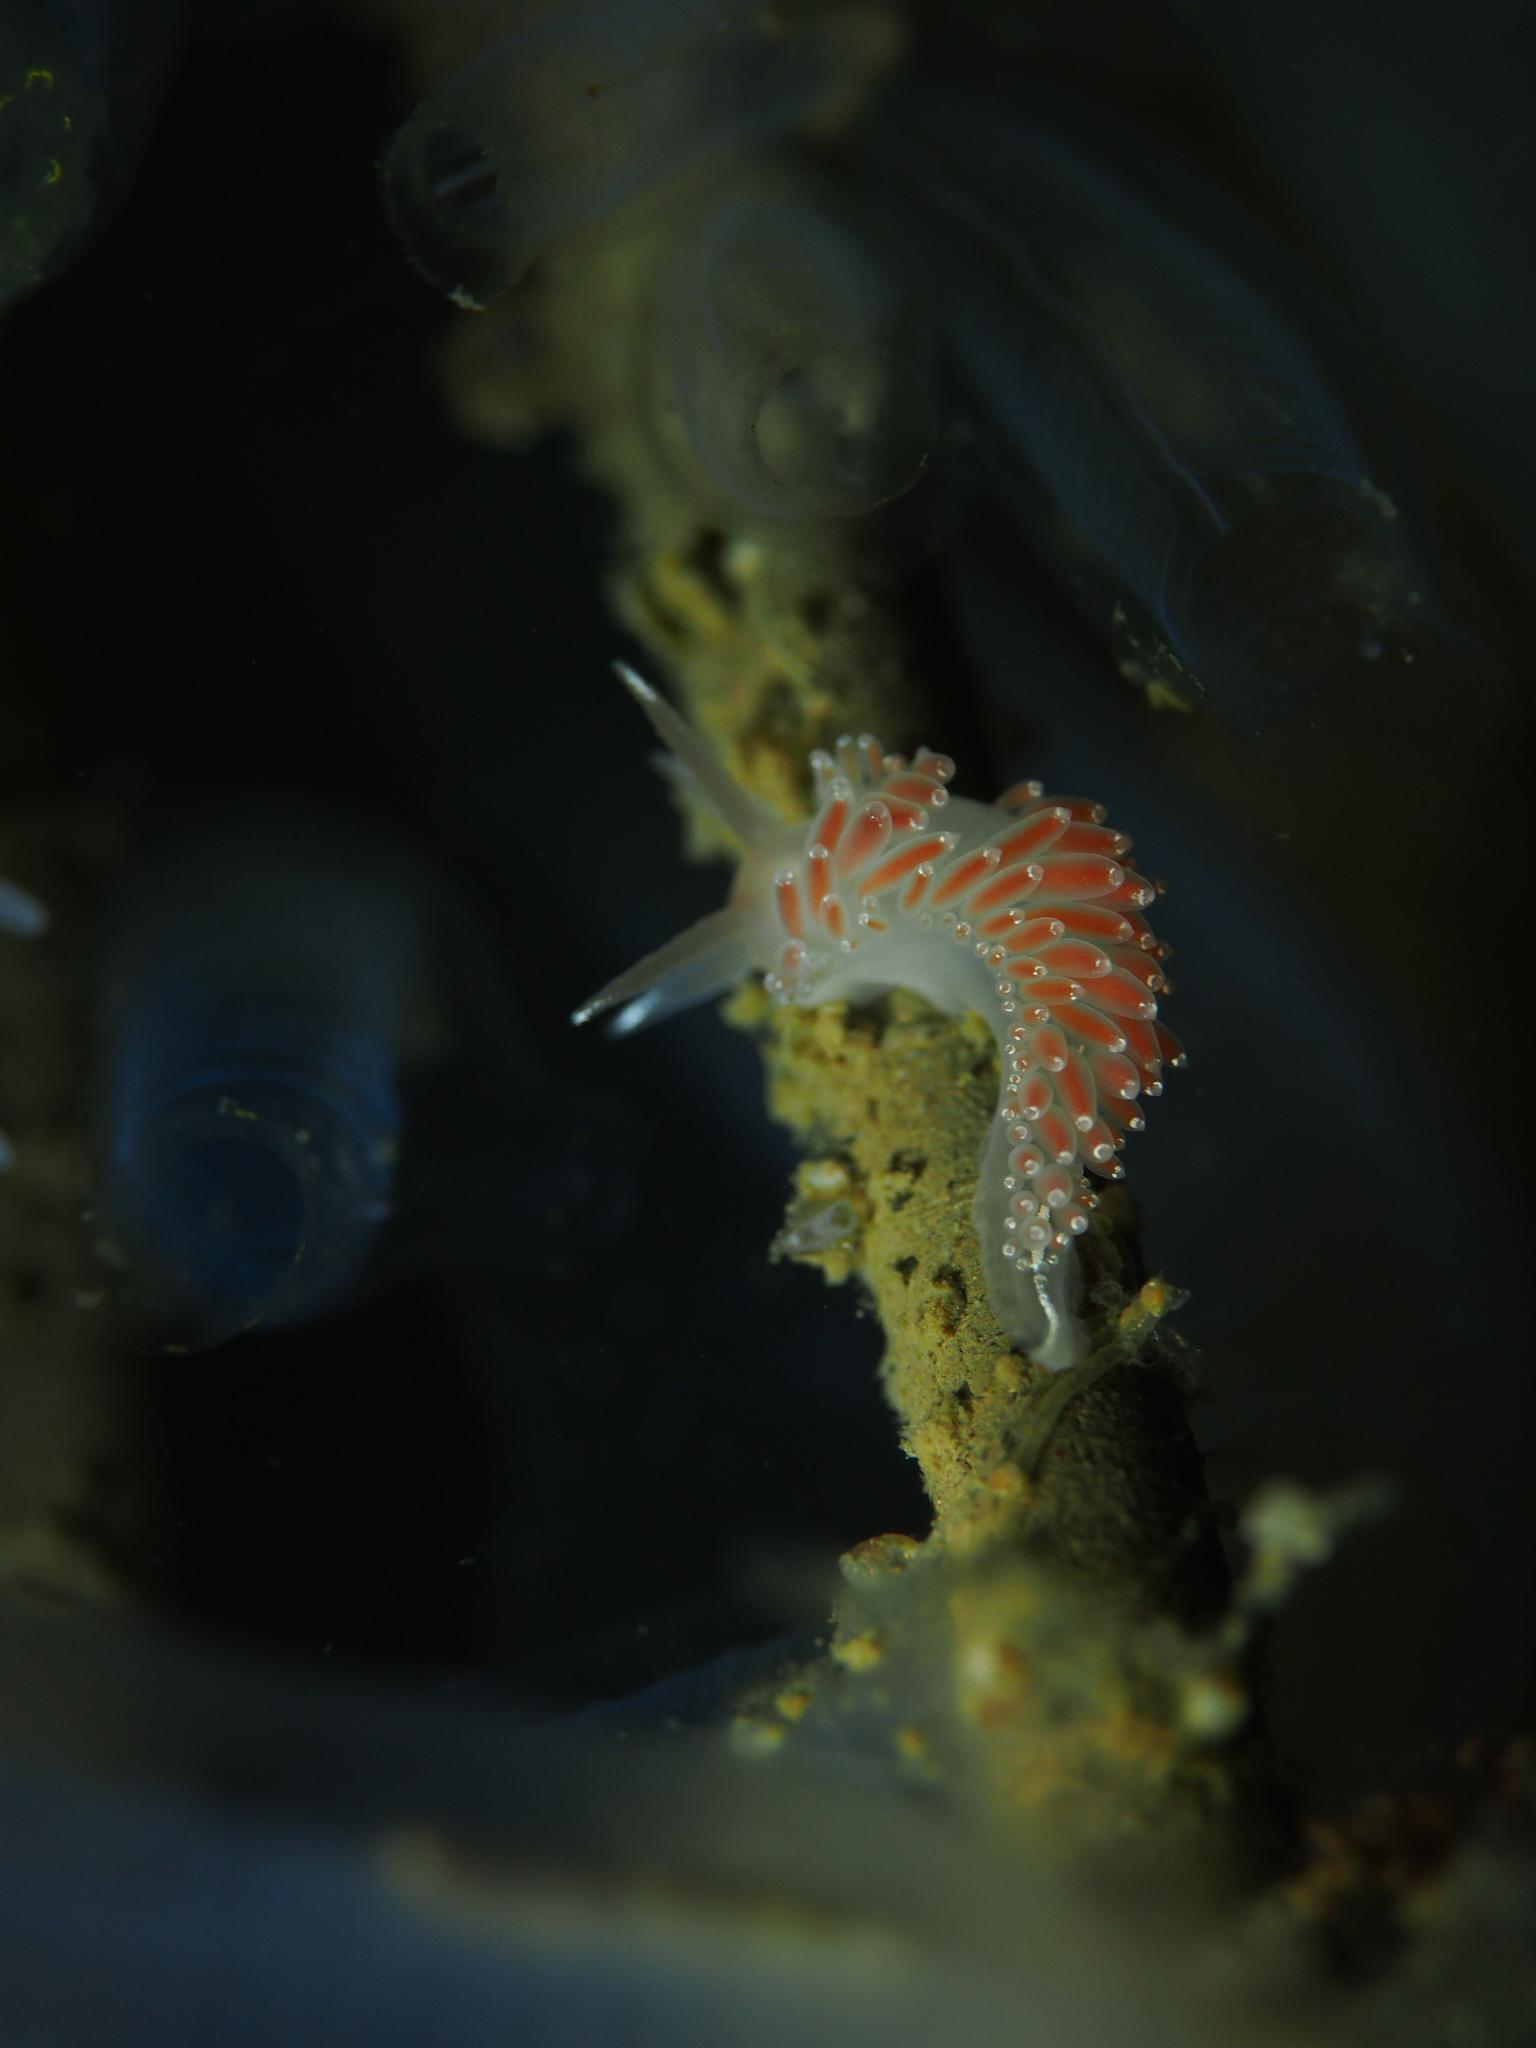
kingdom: Animalia
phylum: Mollusca
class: Gastropoda
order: Nudibranchia
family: Coryphellidae
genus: Coryphella
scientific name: Coryphella verrucosa
